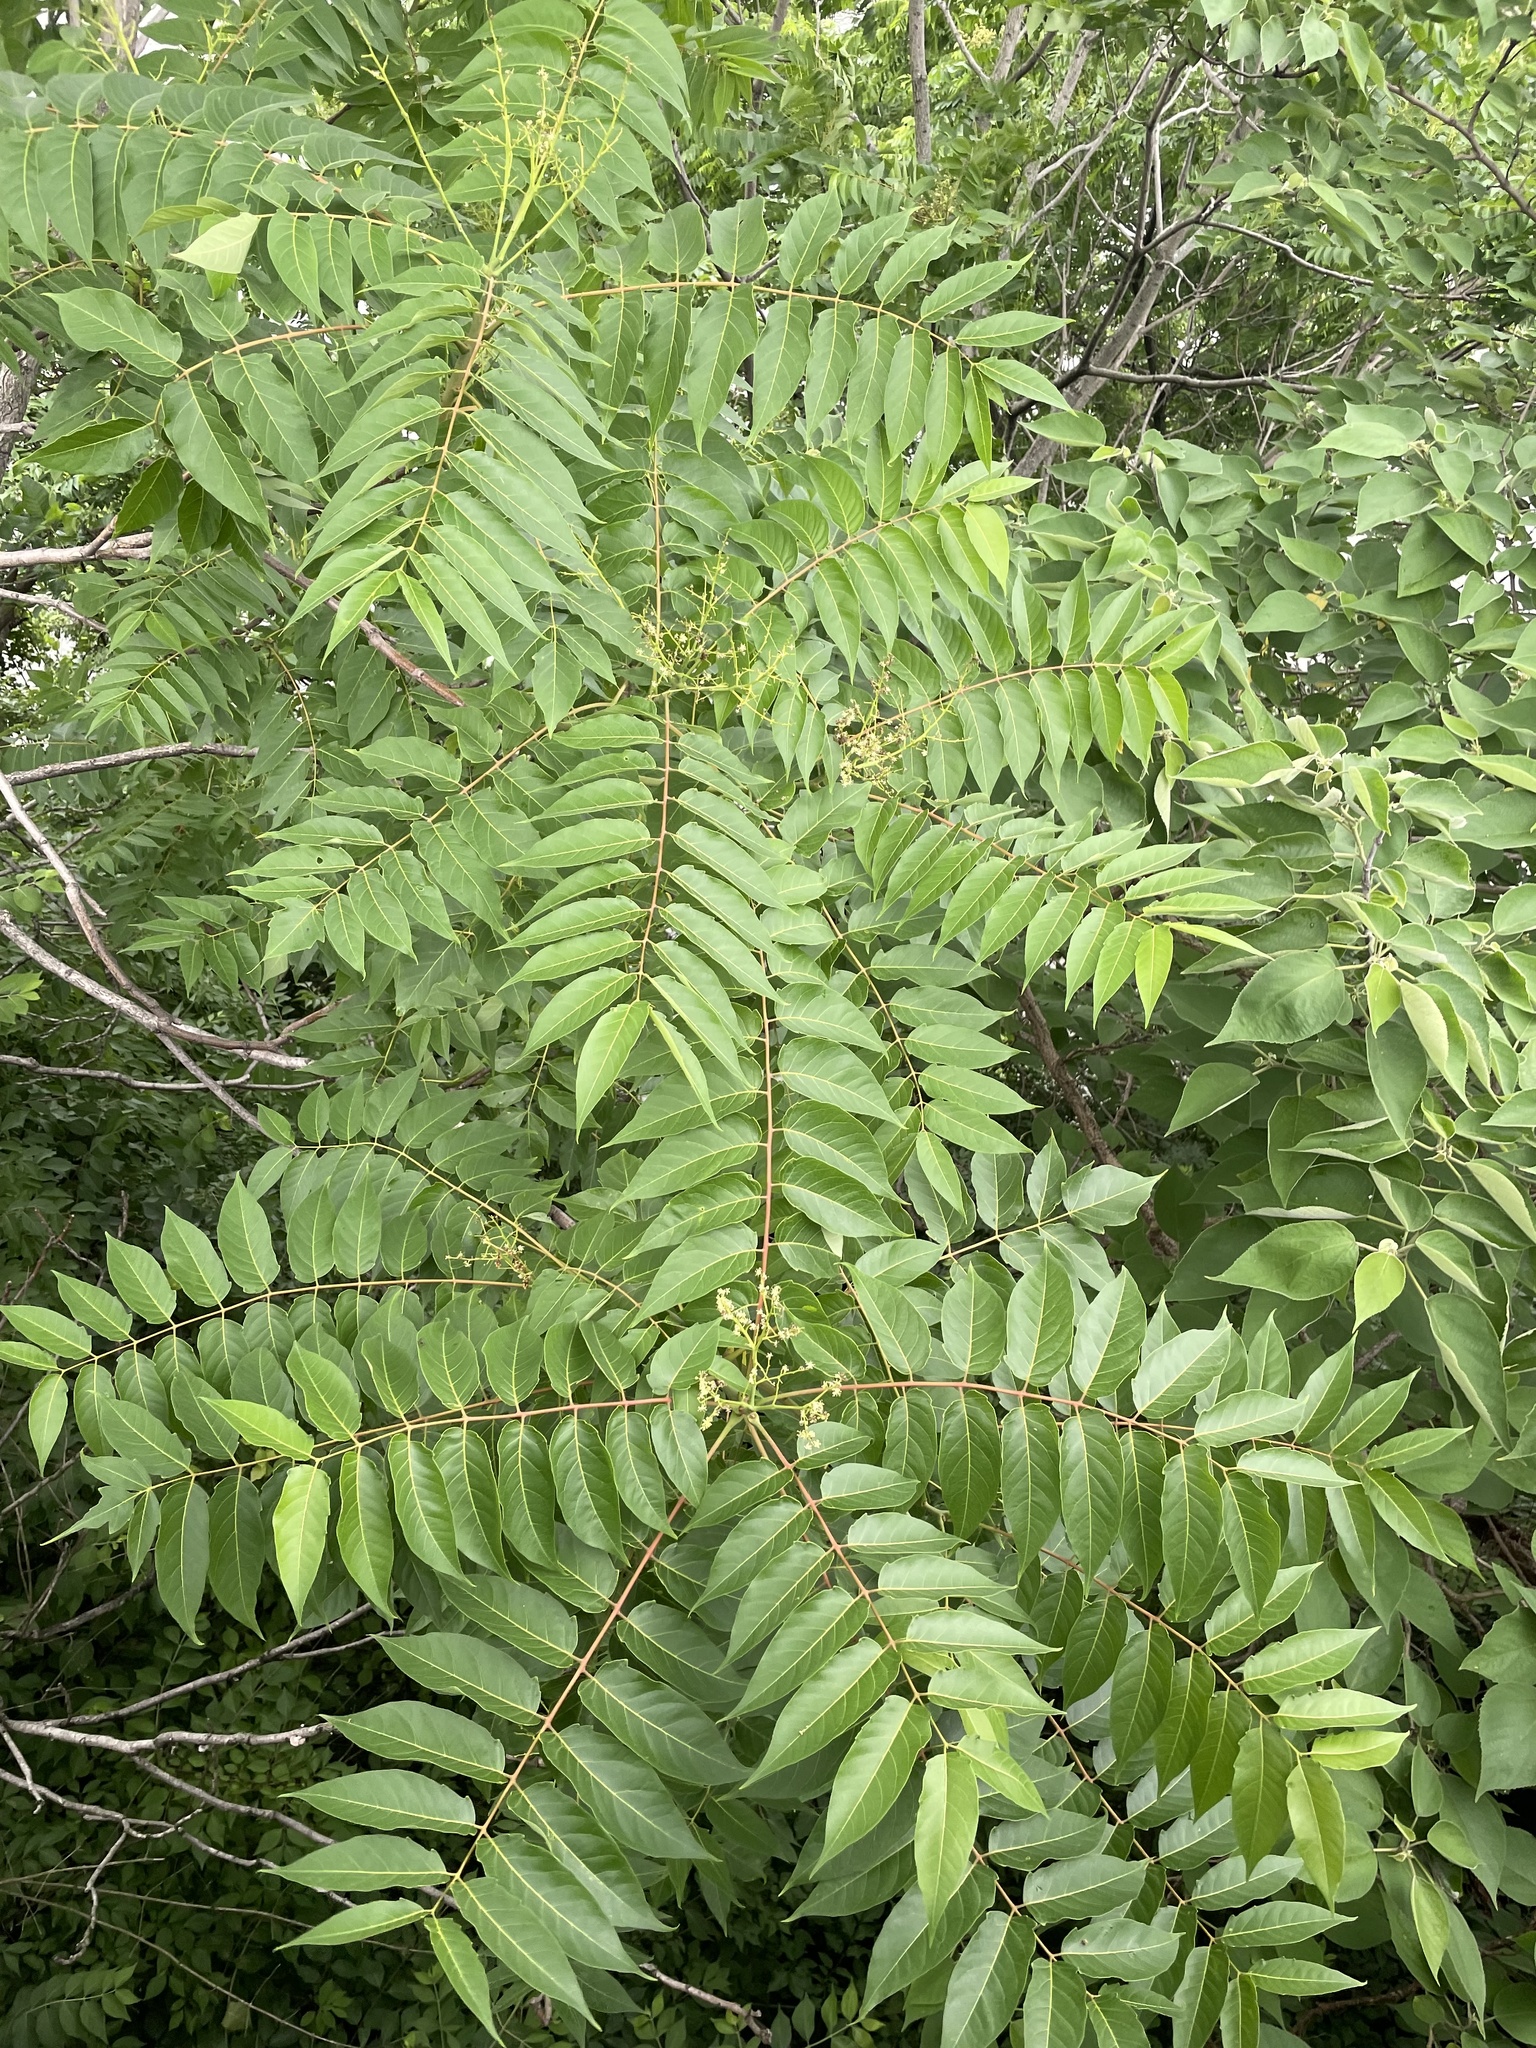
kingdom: Plantae
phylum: Tracheophyta
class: Magnoliopsida
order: Sapindales
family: Simaroubaceae
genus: Ailanthus
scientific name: Ailanthus altissima
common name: Tree-of-heaven
